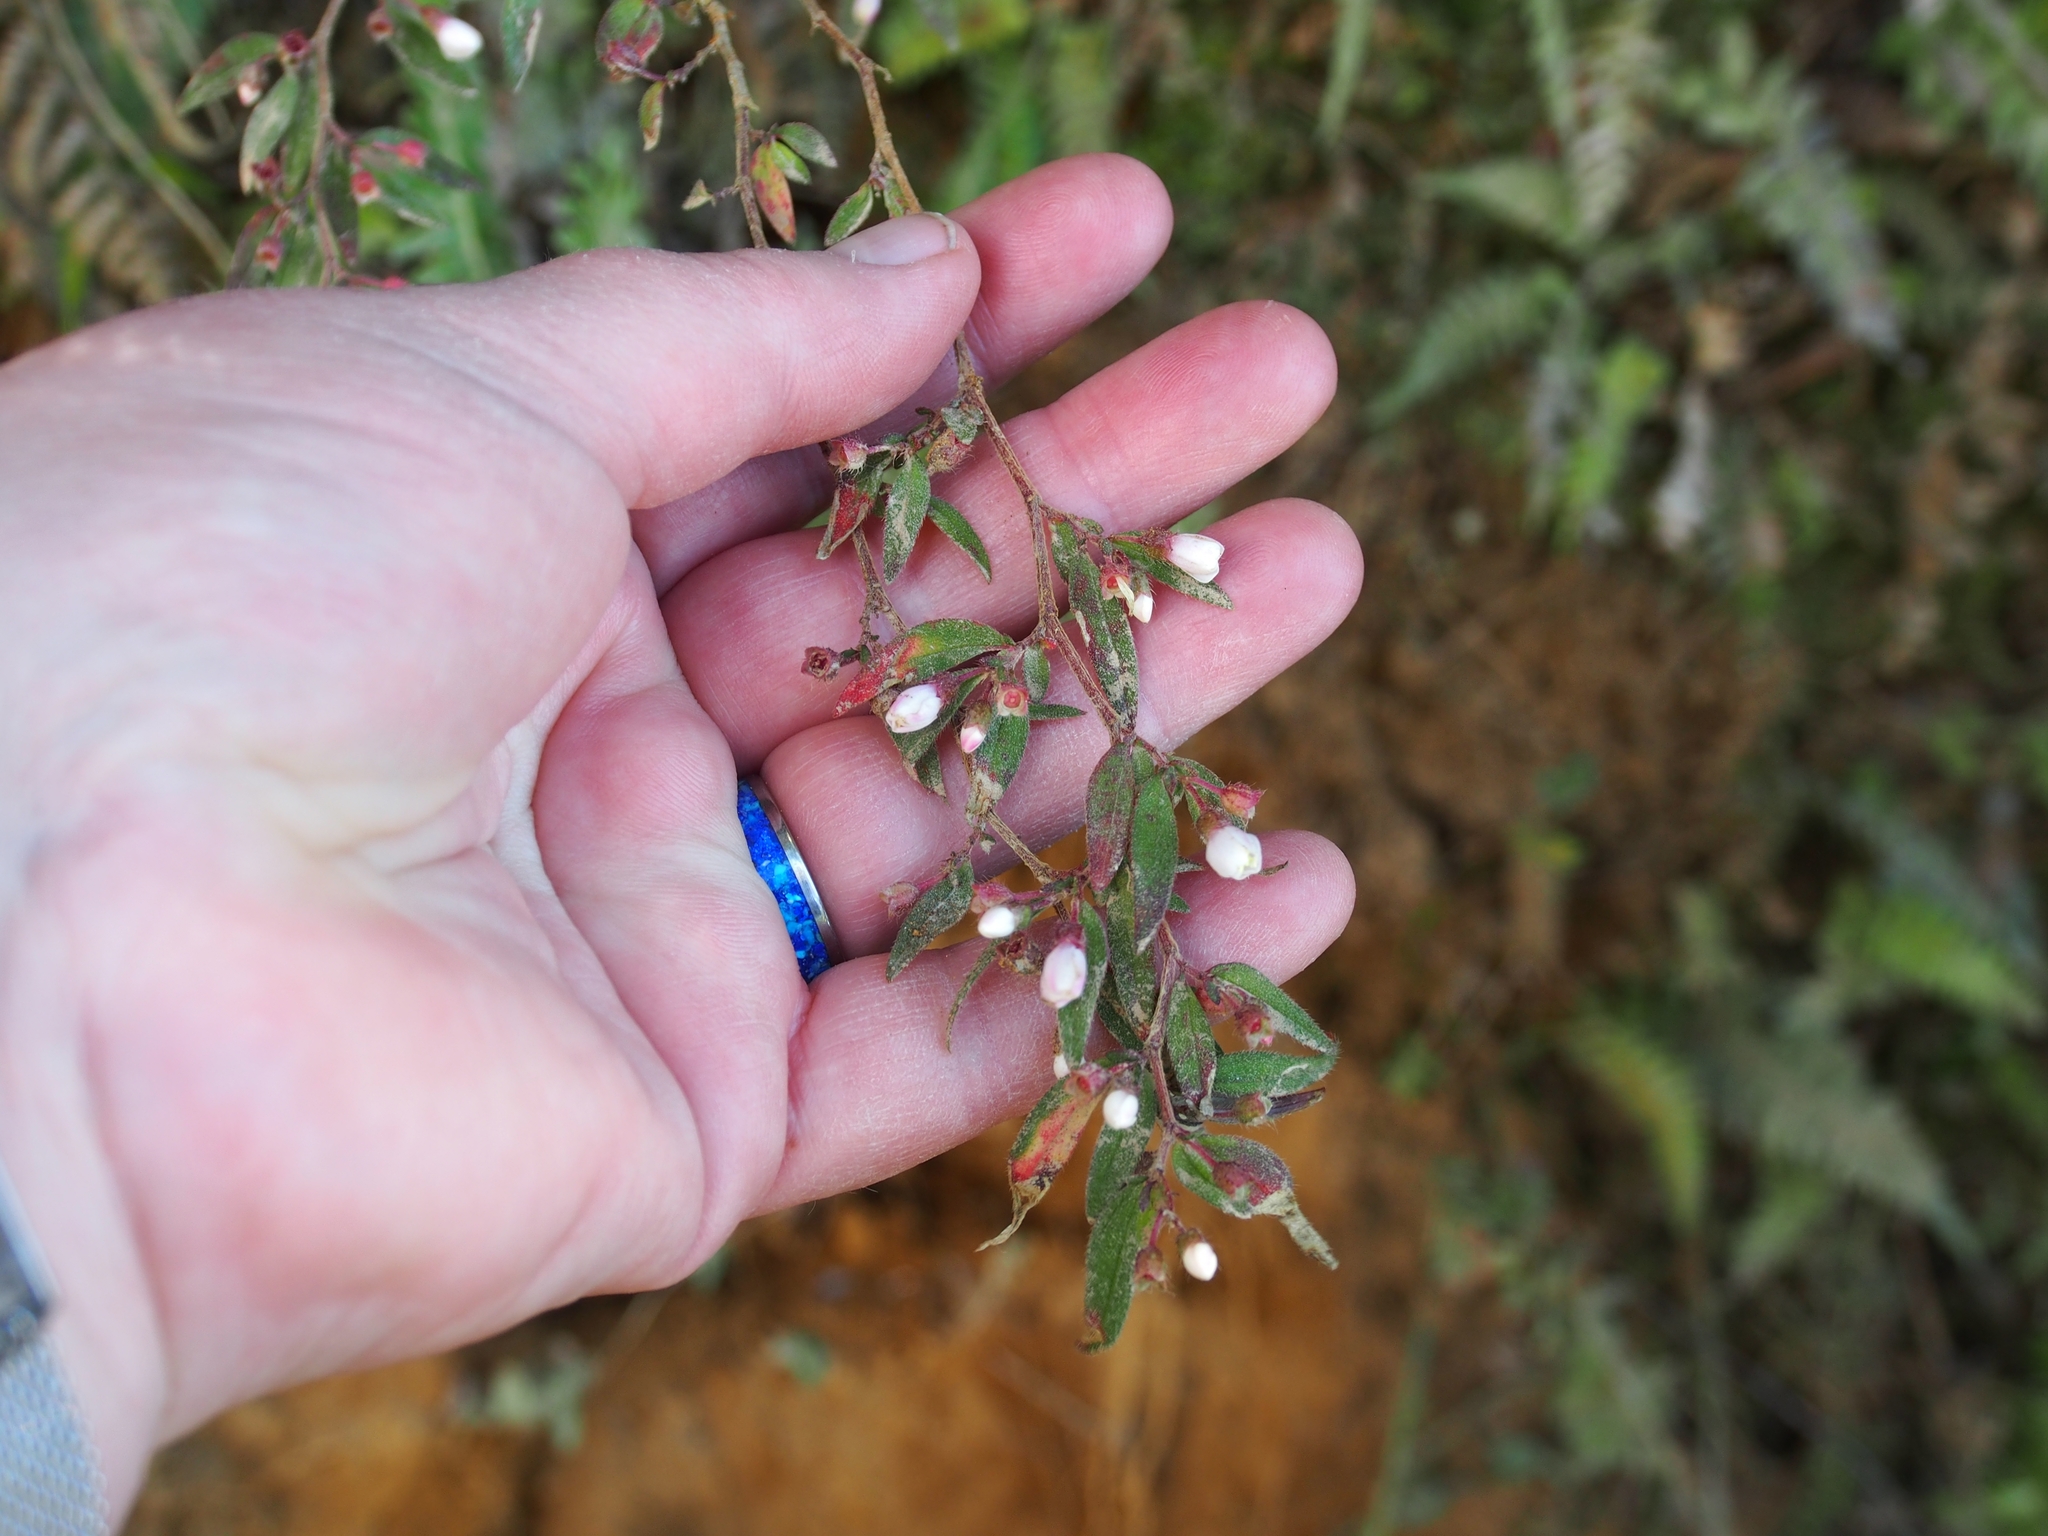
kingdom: Plantae
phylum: Tracheophyta
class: Magnoliopsida
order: Myrtales
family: Melastomataceae
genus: Centradenia
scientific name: Centradenia inaequilateralis
